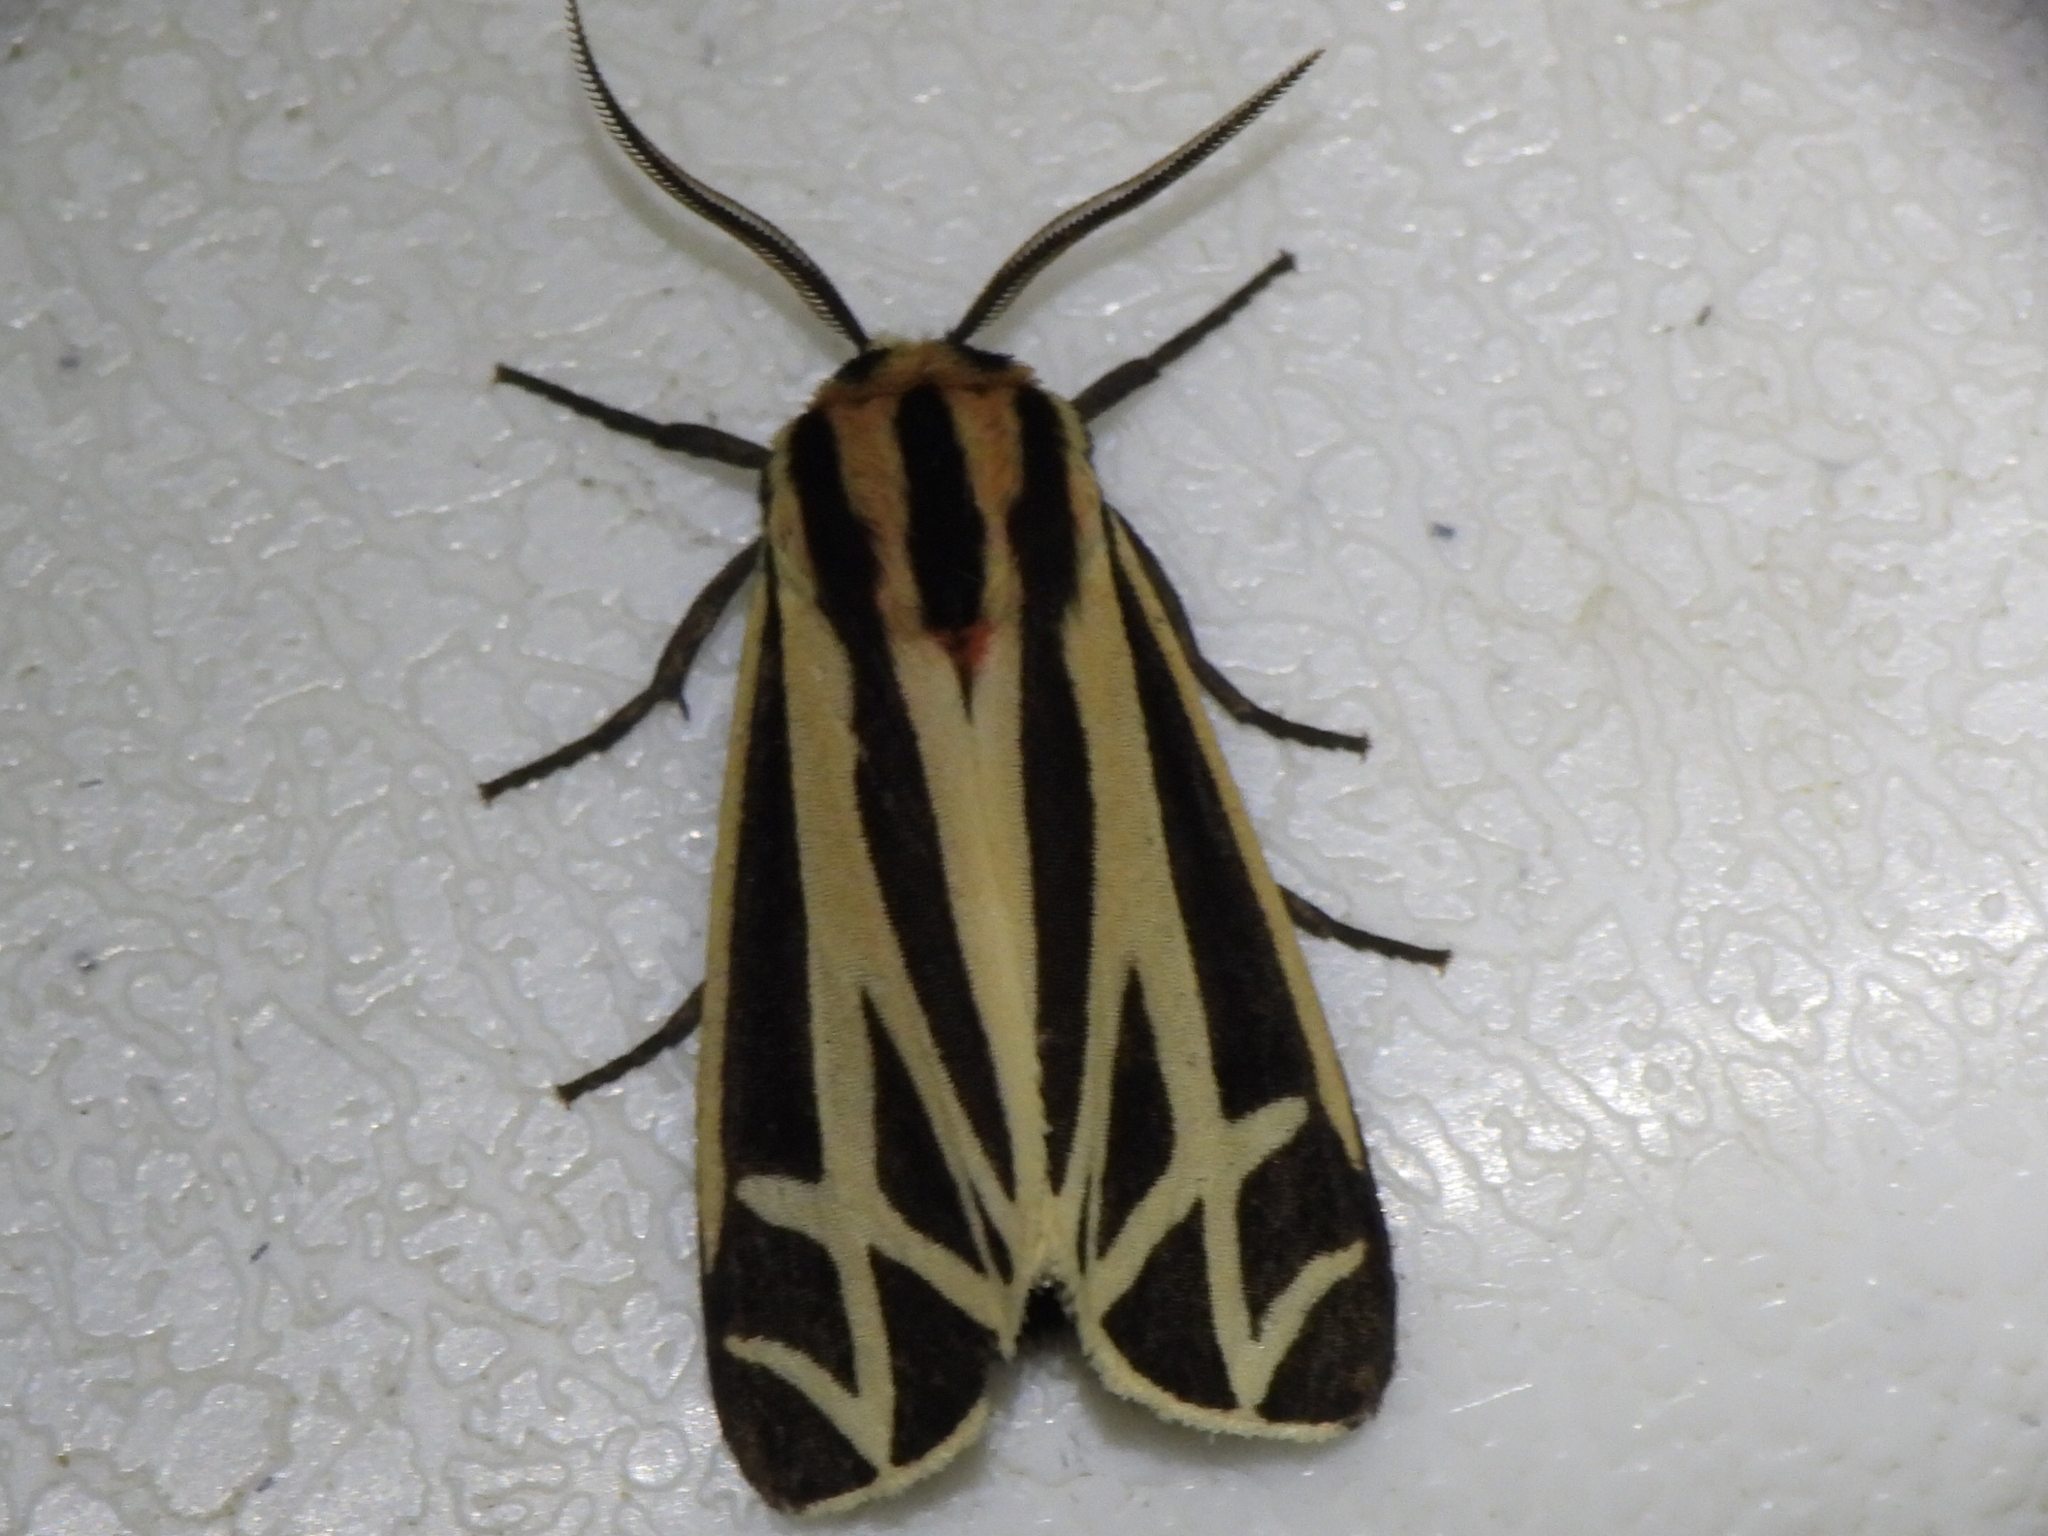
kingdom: Animalia
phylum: Arthropoda
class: Insecta
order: Lepidoptera
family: Erebidae
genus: Apantesis
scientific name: Apantesis phalerata
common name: Harnessed tiger moth
